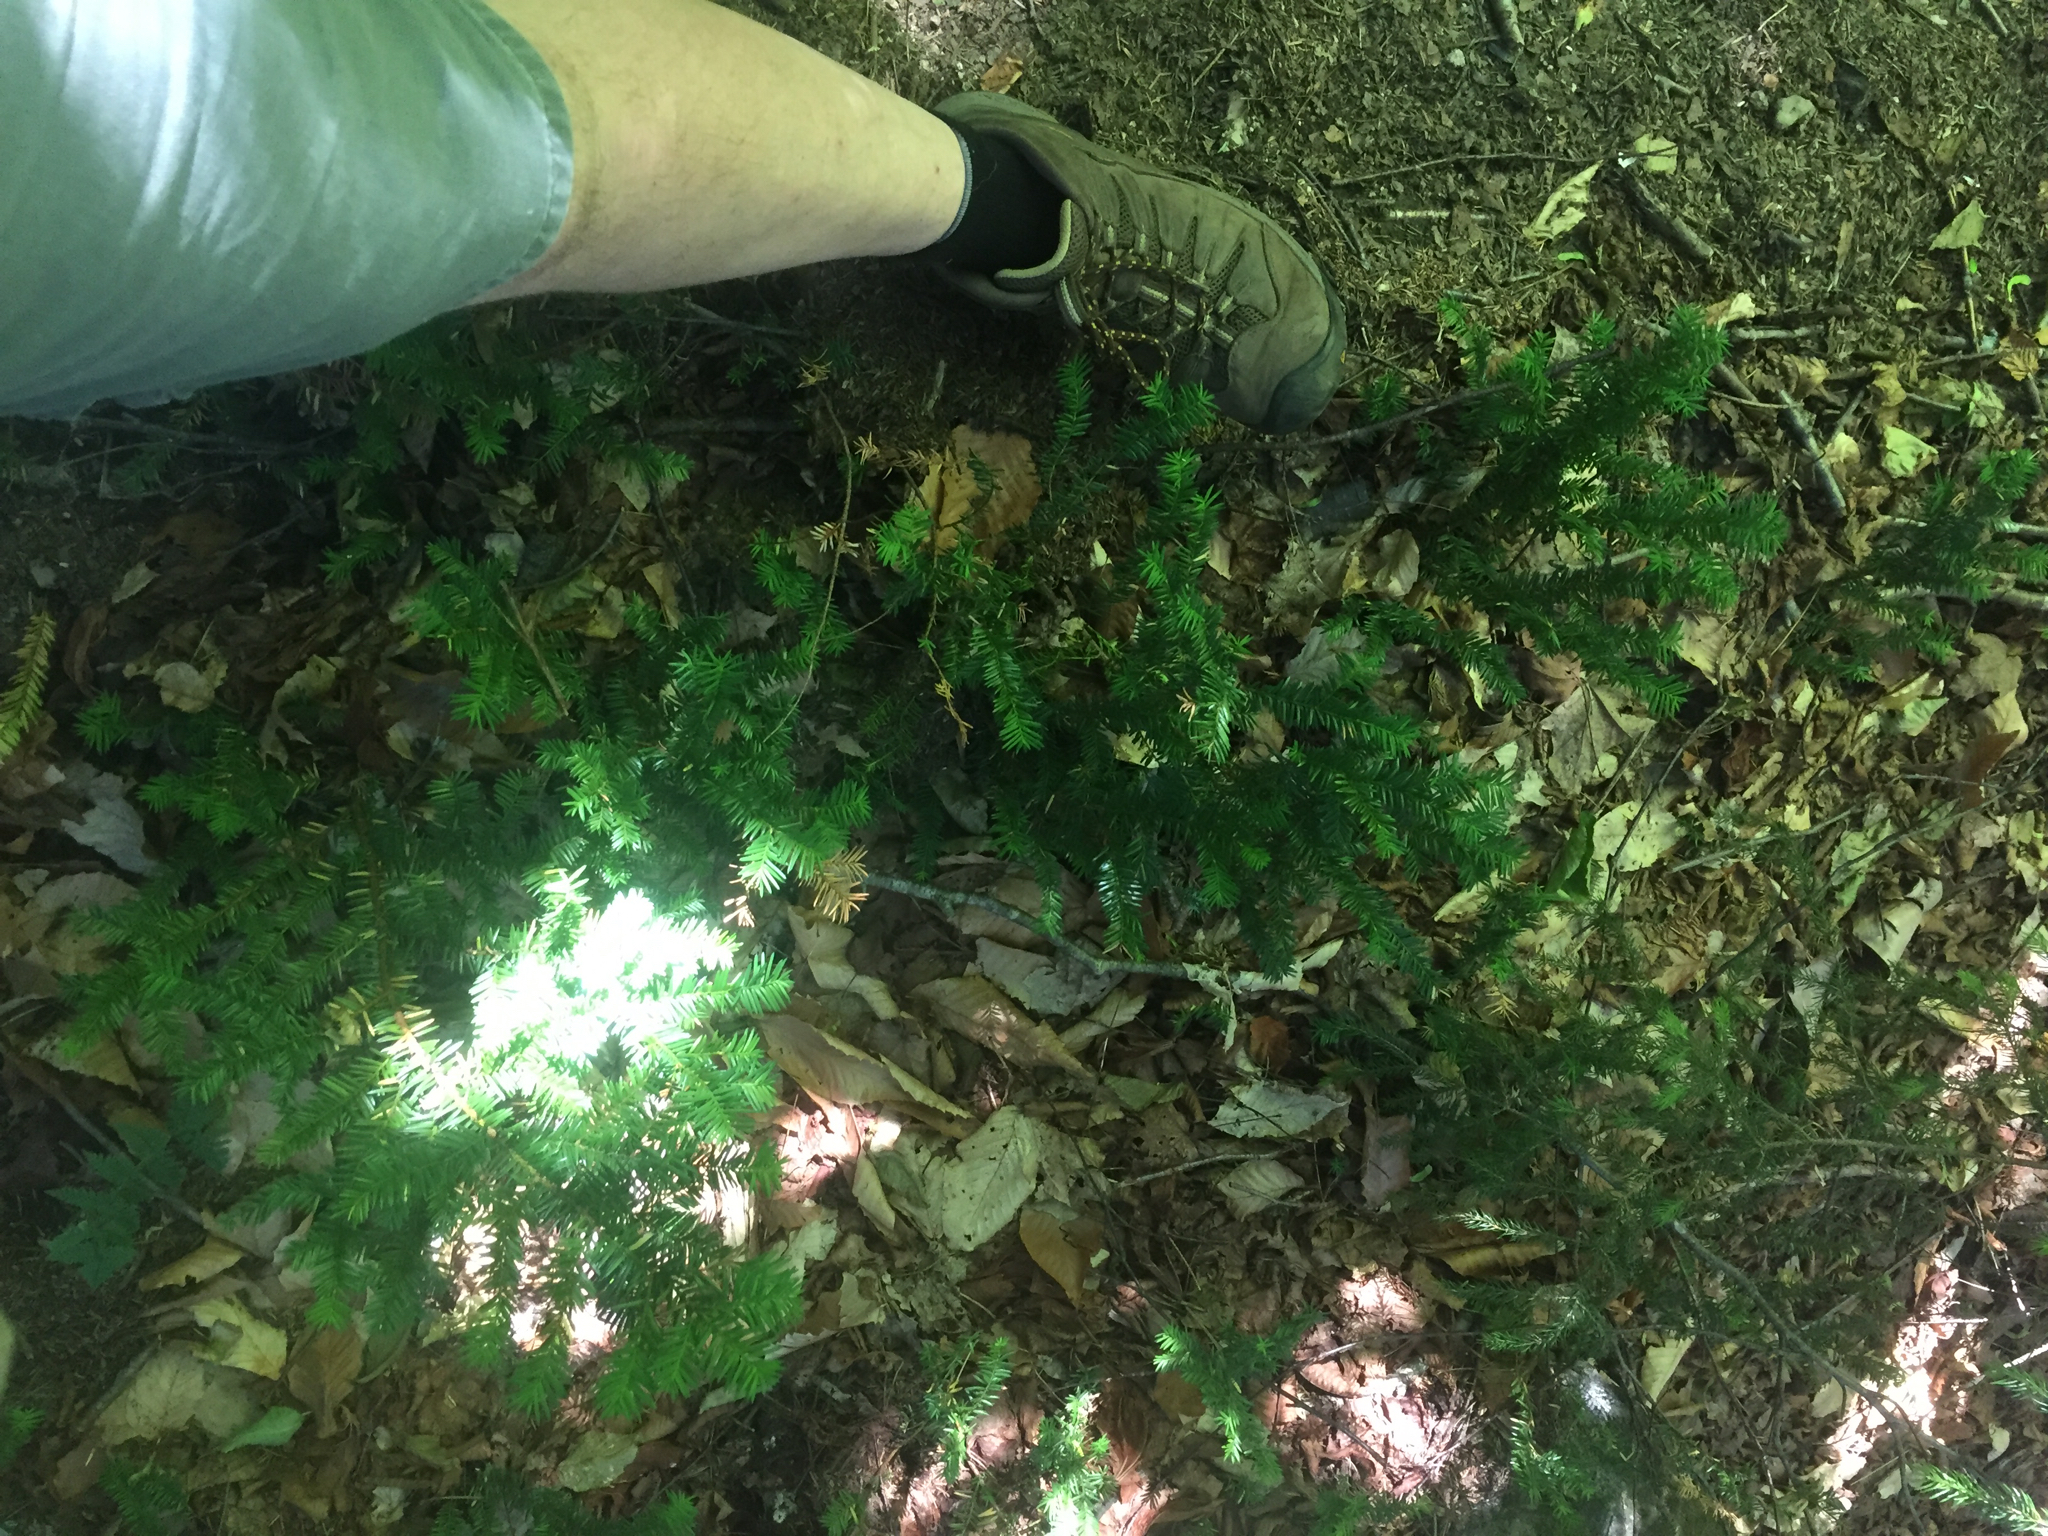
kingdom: Plantae
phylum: Tracheophyta
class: Pinopsida
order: Pinales
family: Taxaceae
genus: Taxus
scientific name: Taxus canadensis
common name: American yew
